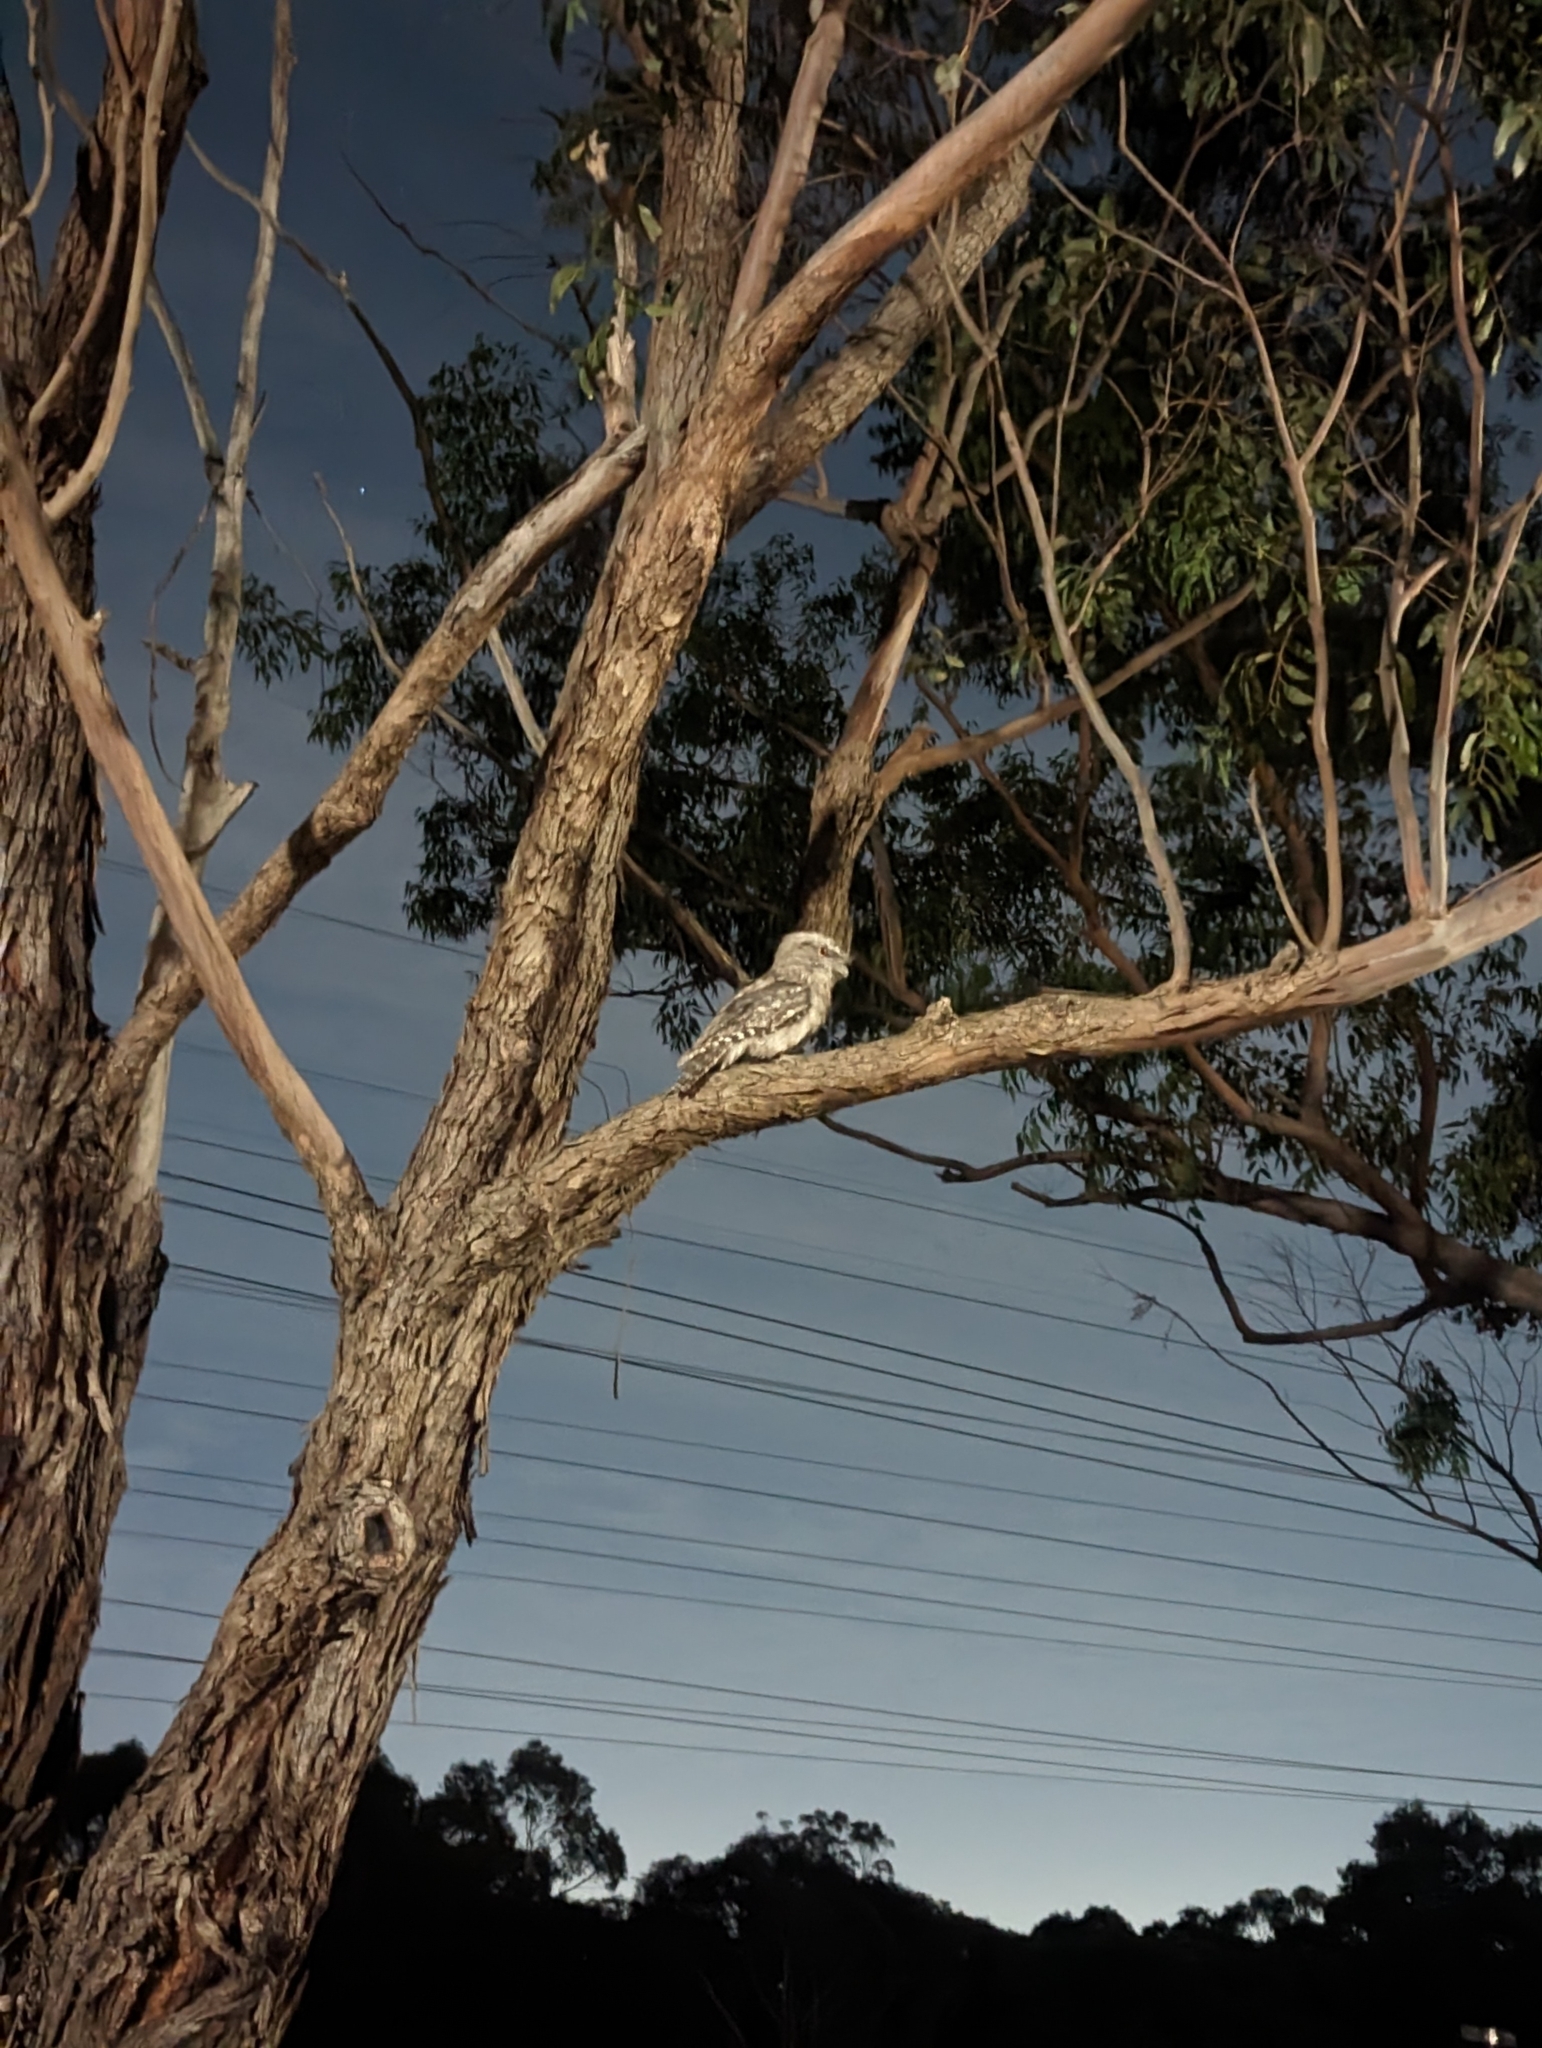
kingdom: Animalia
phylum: Chordata
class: Aves
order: Caprimulgiformes
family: Podargidae
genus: Podargus
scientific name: Podargus strigoides
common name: Tawny frogmouth
